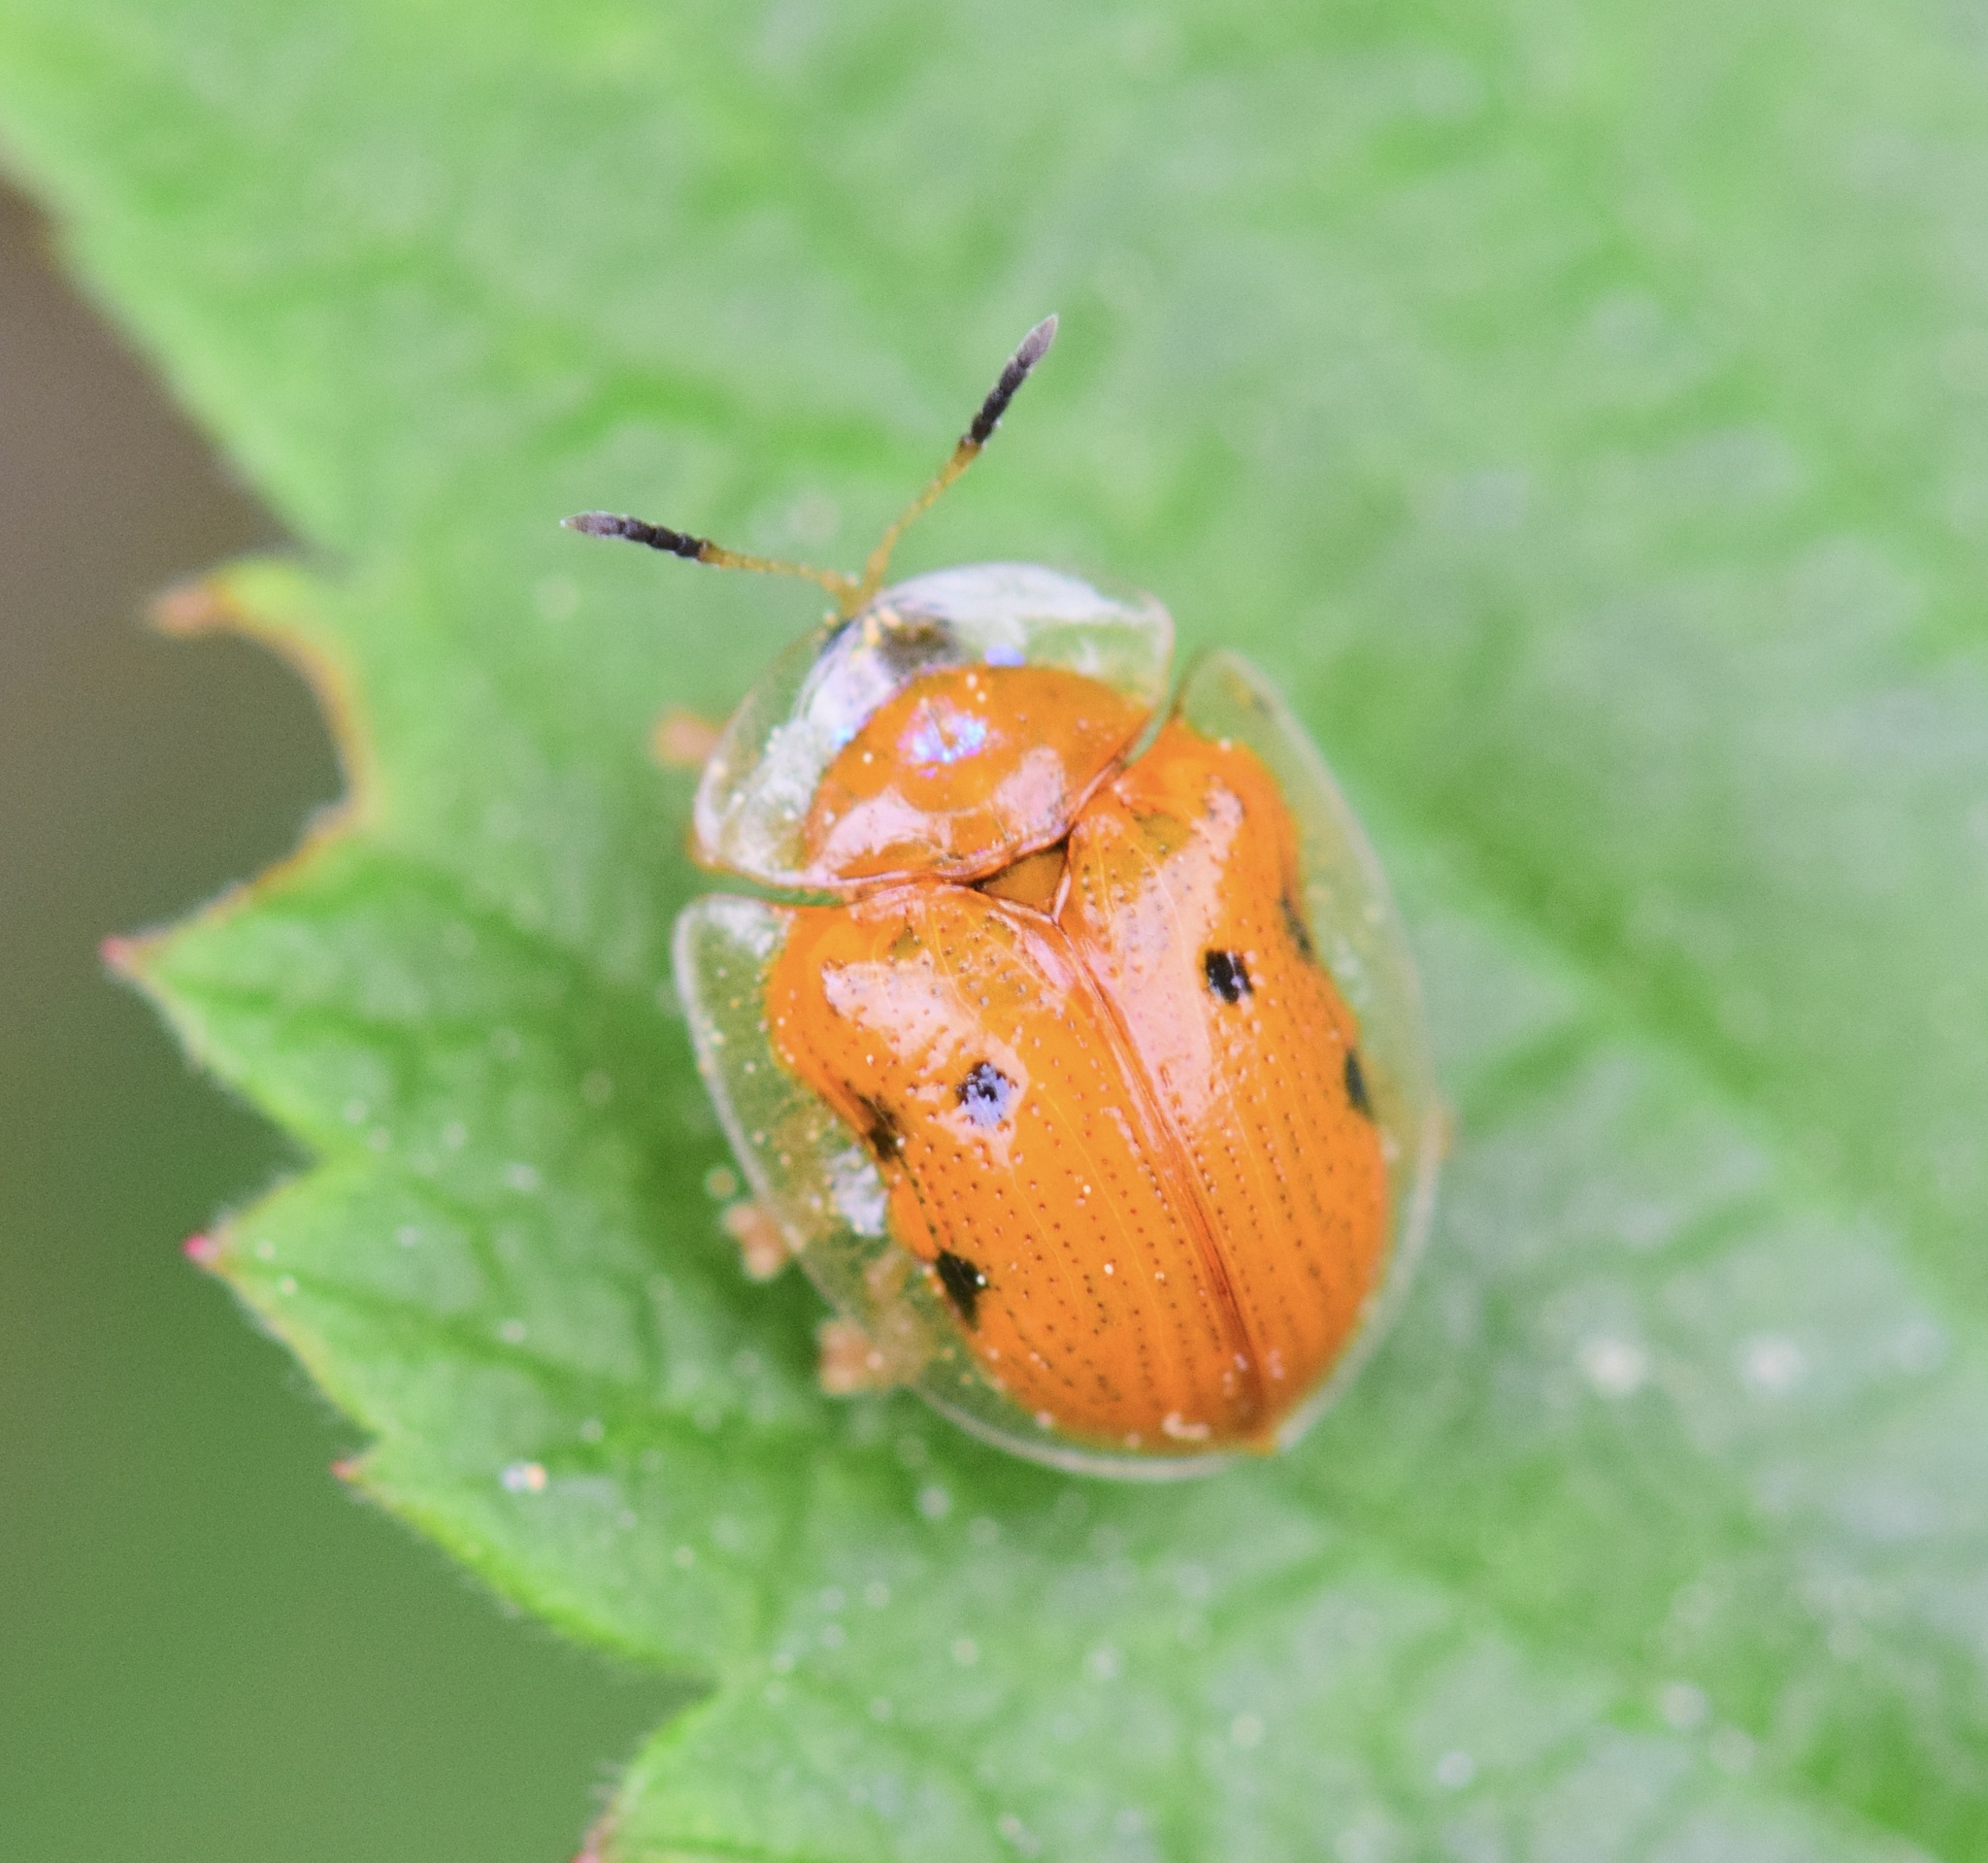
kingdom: Animalia
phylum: Arthropoda
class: Insecta
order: Coleoptera
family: Chrysomelidae
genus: Charidotella
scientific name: Charidotella sexpunctata
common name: Golden tortoise beetle
